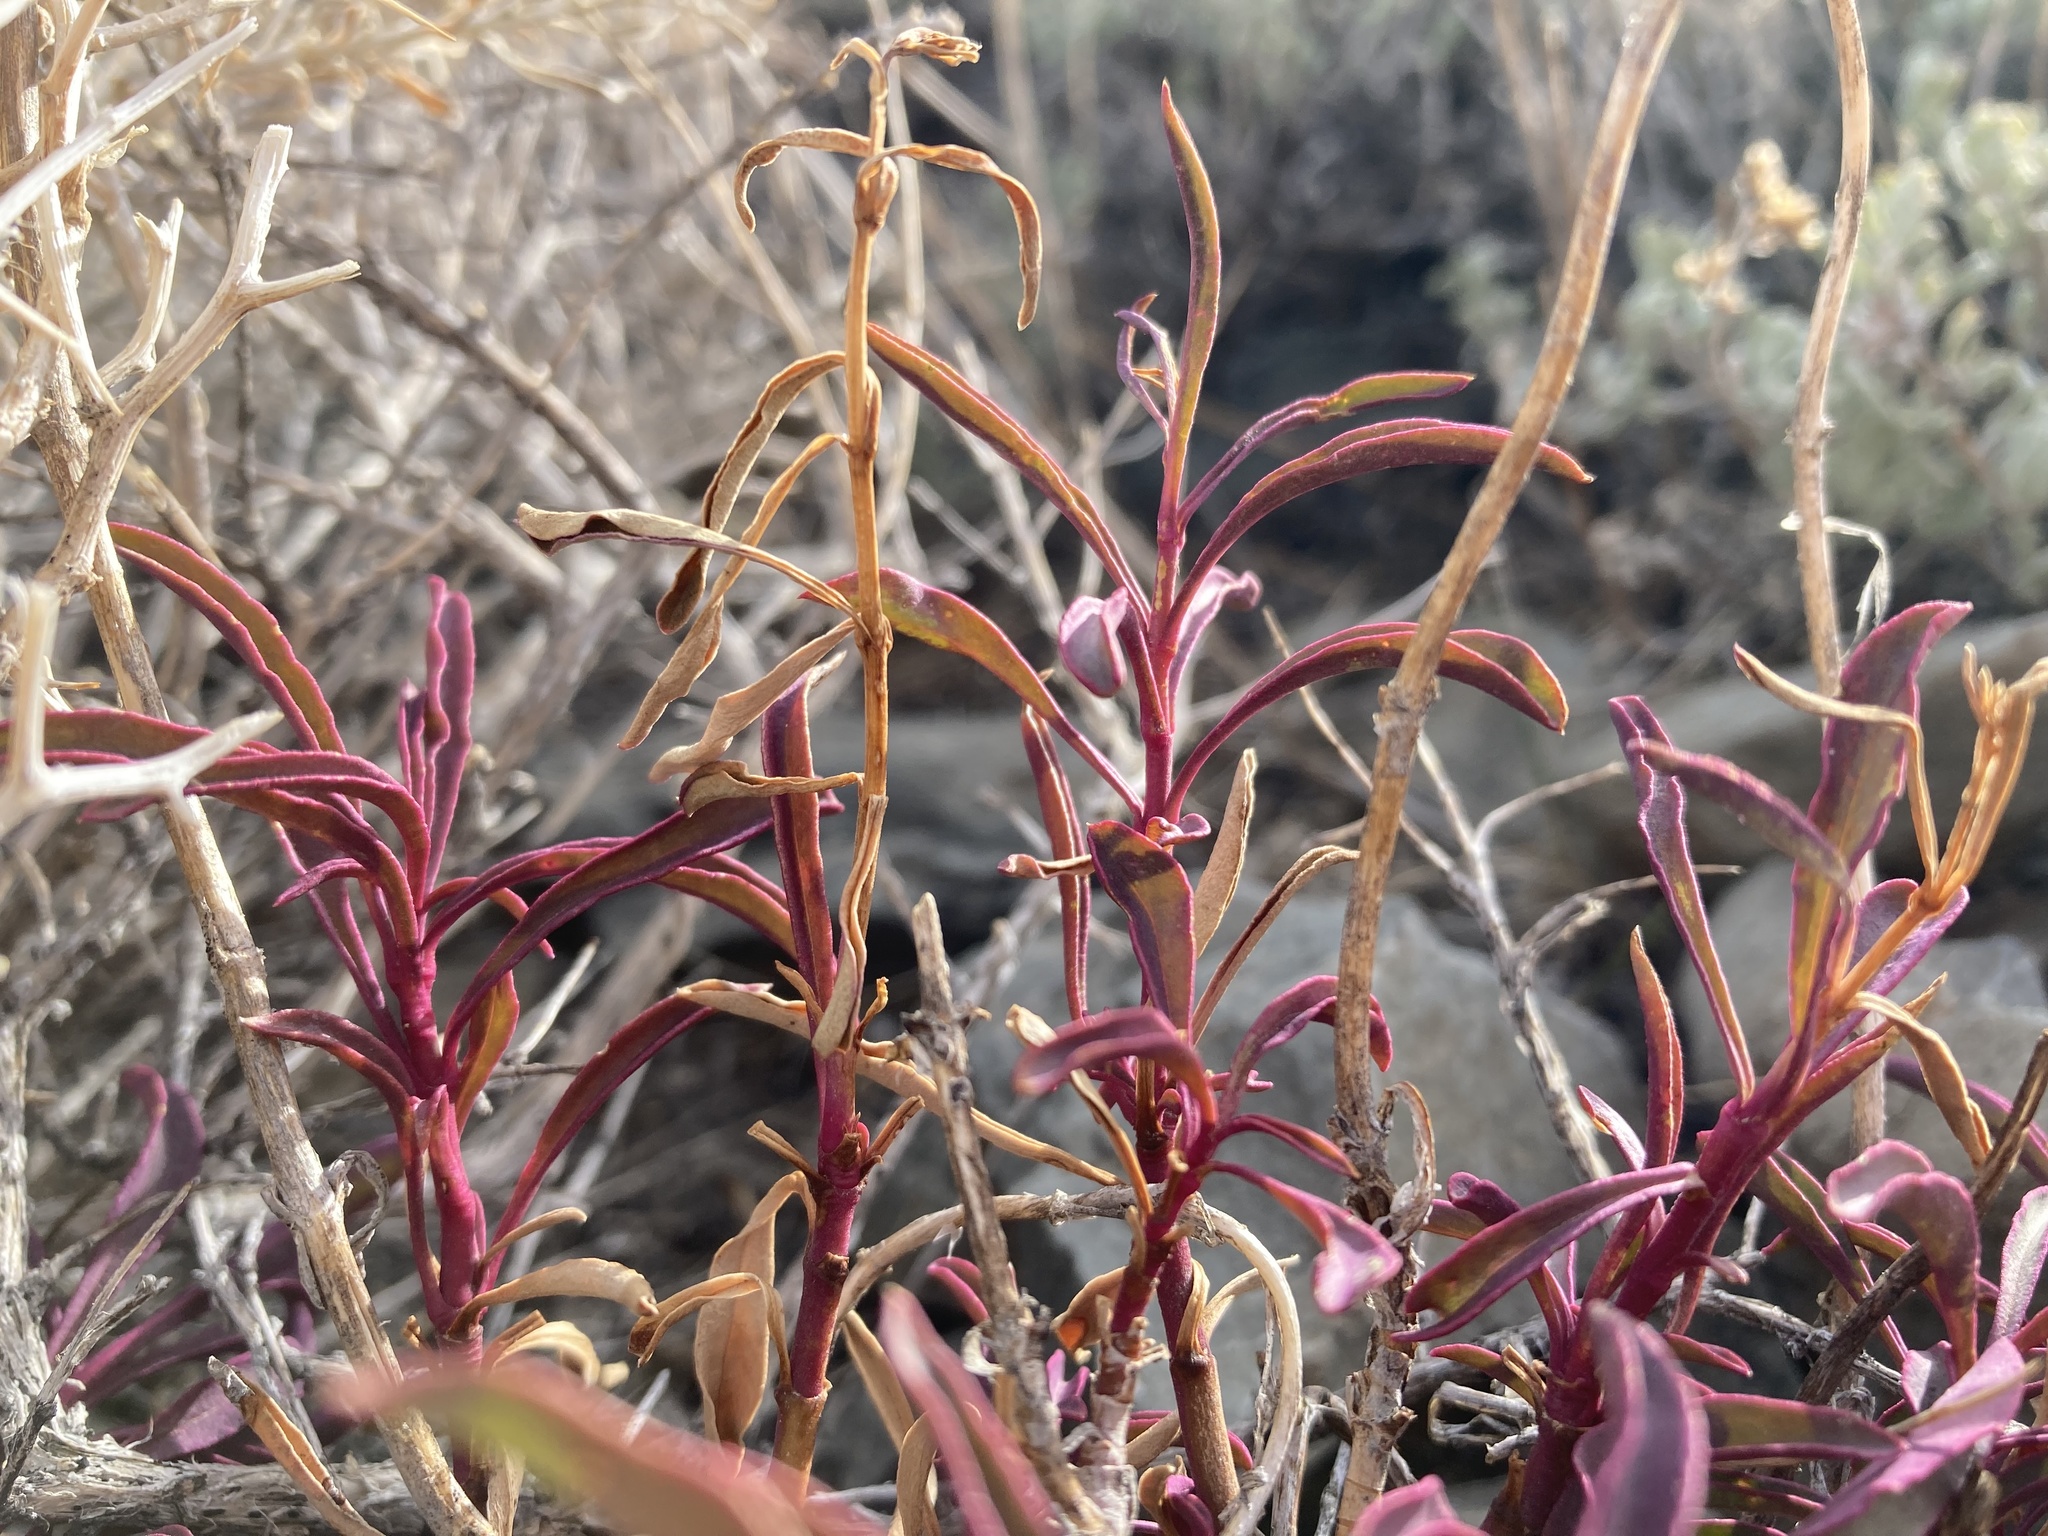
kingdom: Plantae
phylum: Tracheophyta
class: Magnoliopsida
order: Lamiales
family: Plantaginaceae
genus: Penstemon
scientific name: Penstemon rostriflorus
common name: Bridges's penstemon
